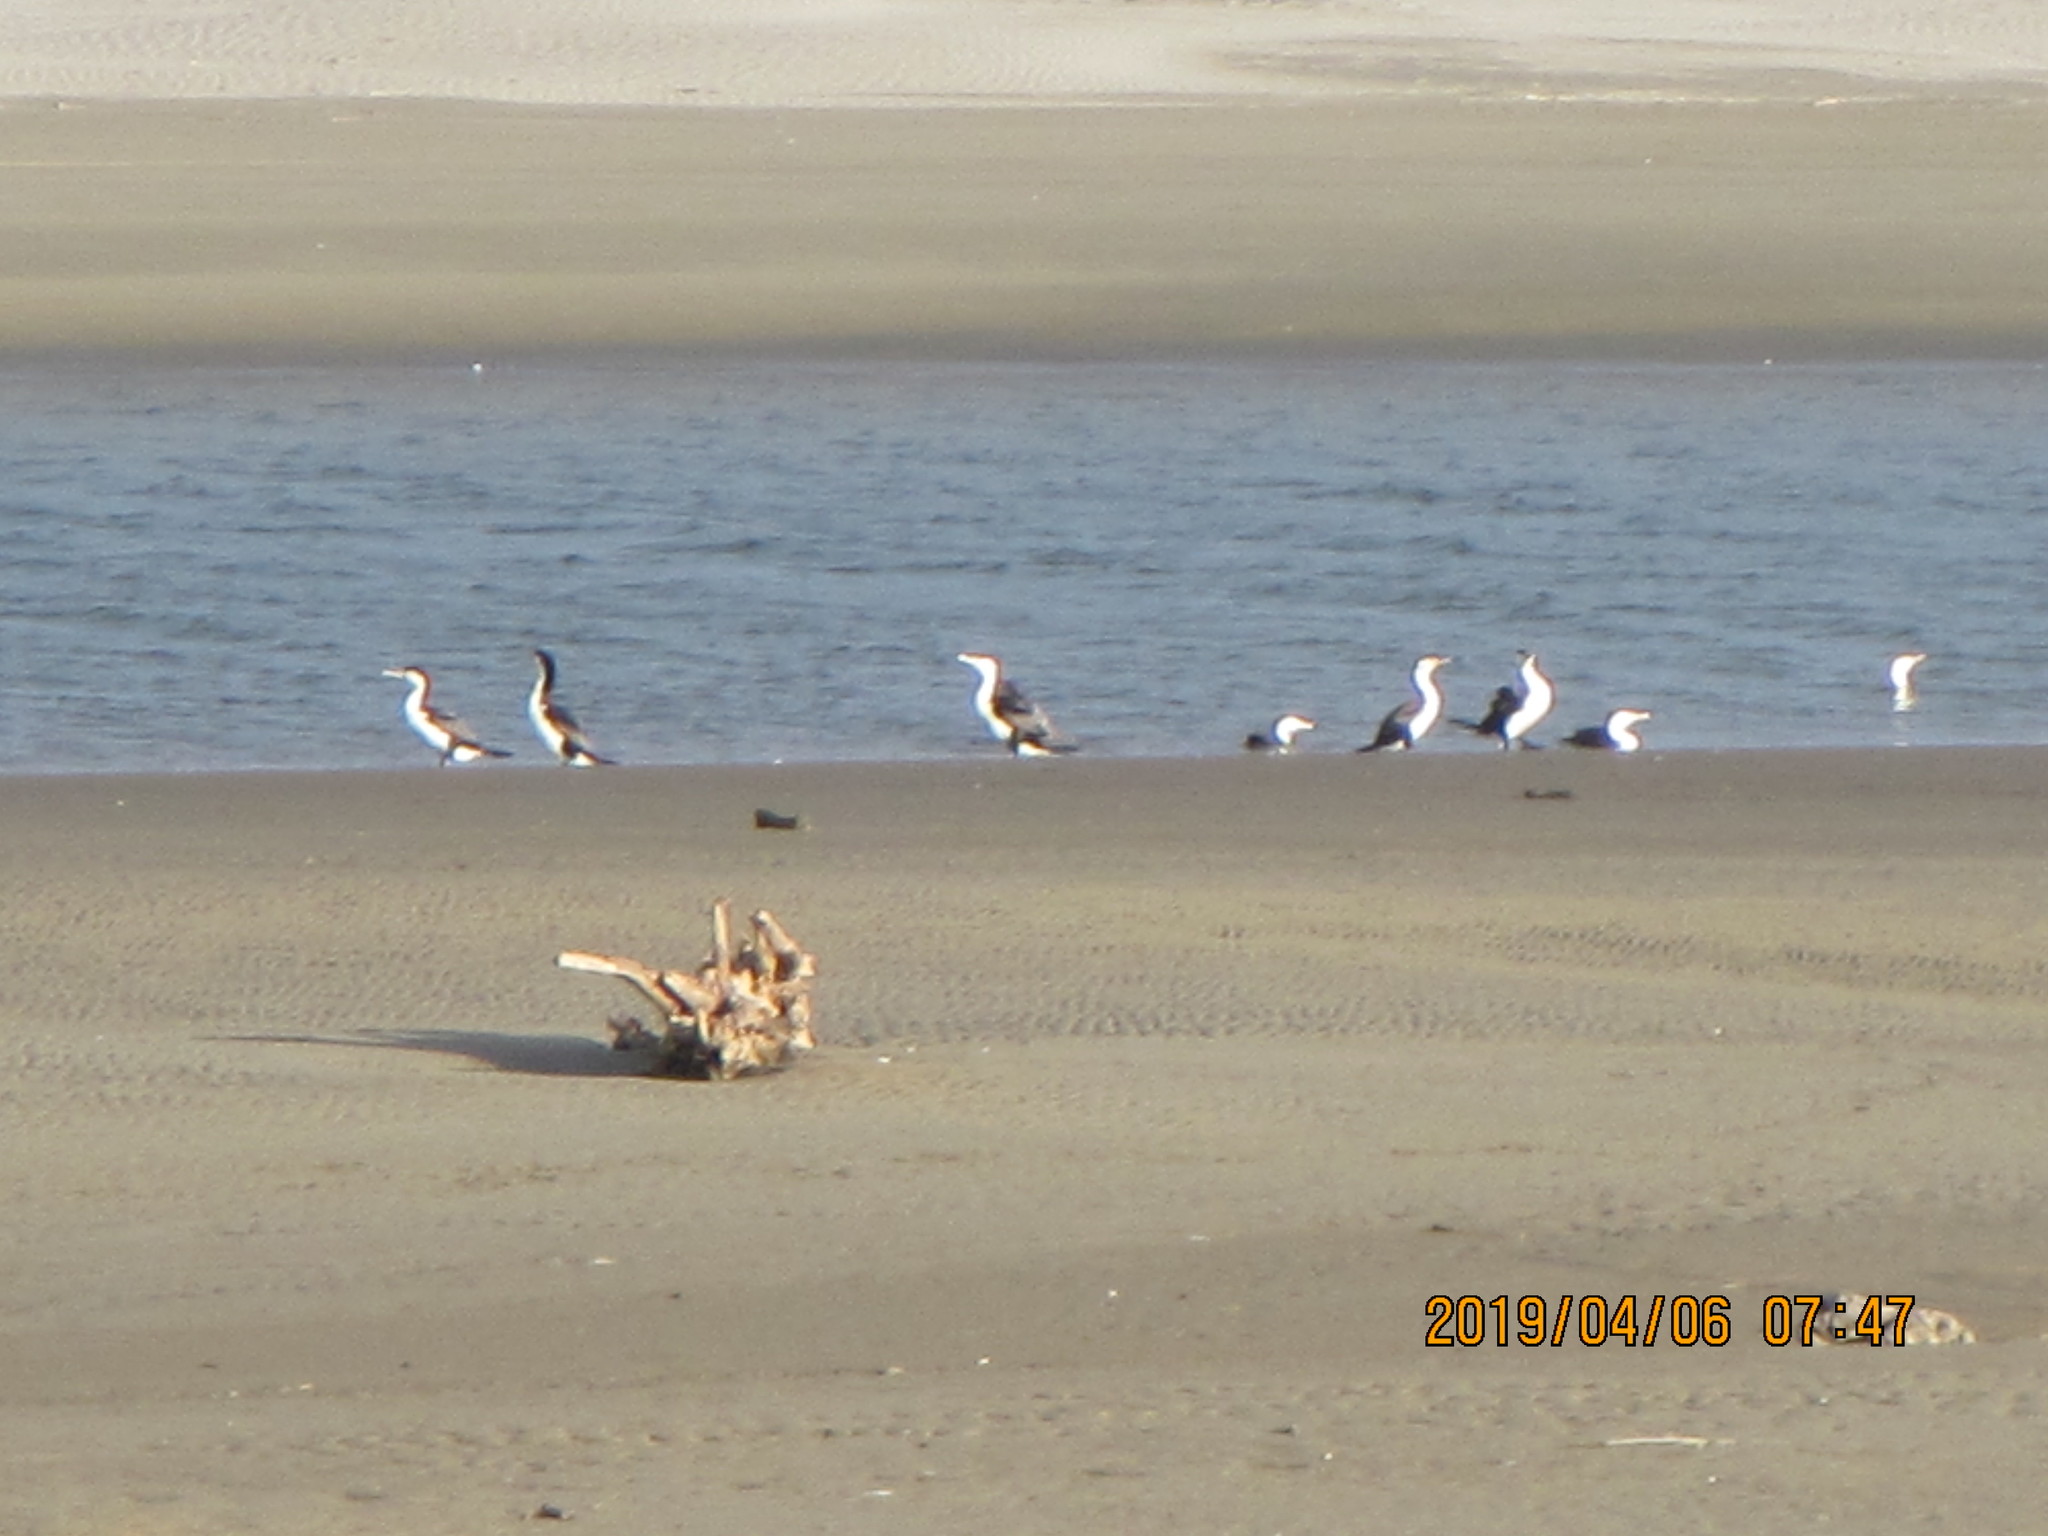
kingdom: Animalia
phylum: Chordata
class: Aves
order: Suliformes
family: Phalacrocoracidae
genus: Phalacrocorax
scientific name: Phalacrocorax varius
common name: Pied cormorant
